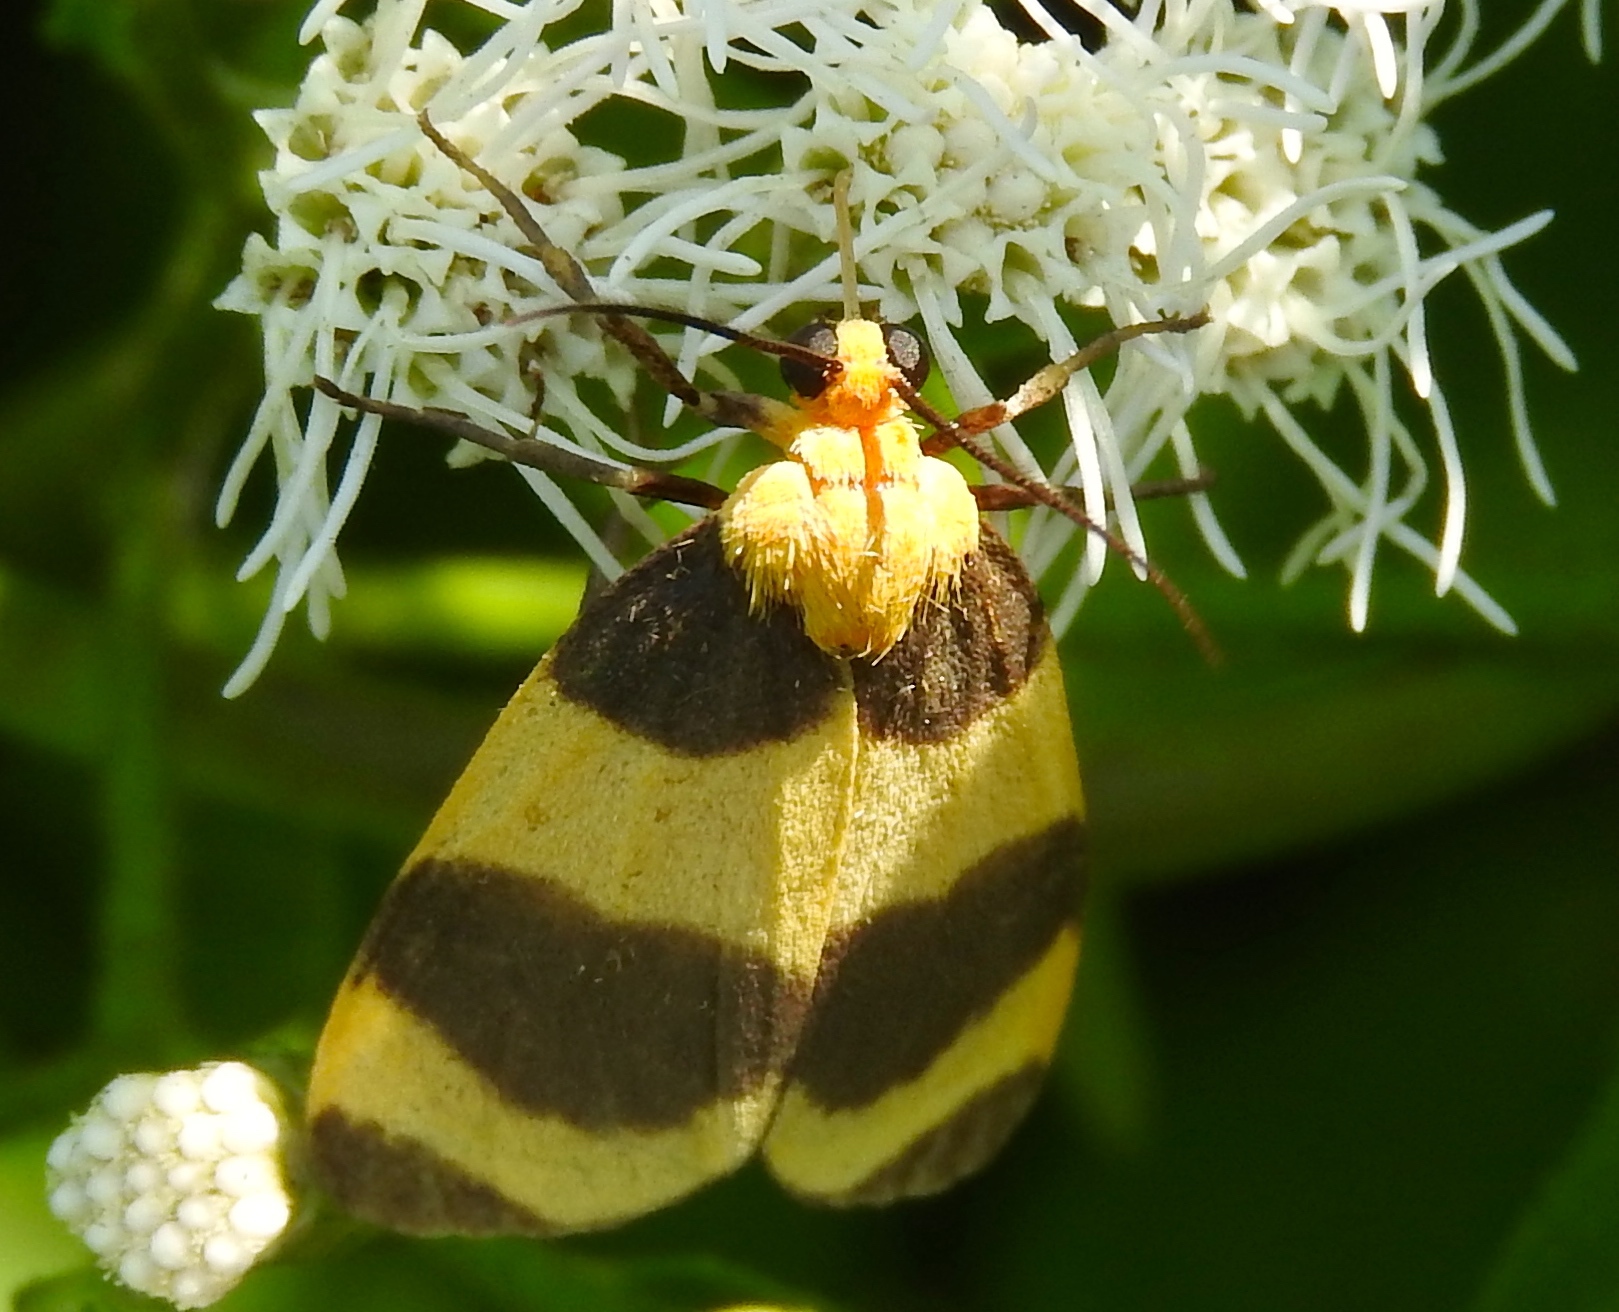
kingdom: Animalia
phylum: Arthropoda
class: Insecta
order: Lepidoptera
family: Erebidae
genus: Eudesmia
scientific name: Eudesmia menea
